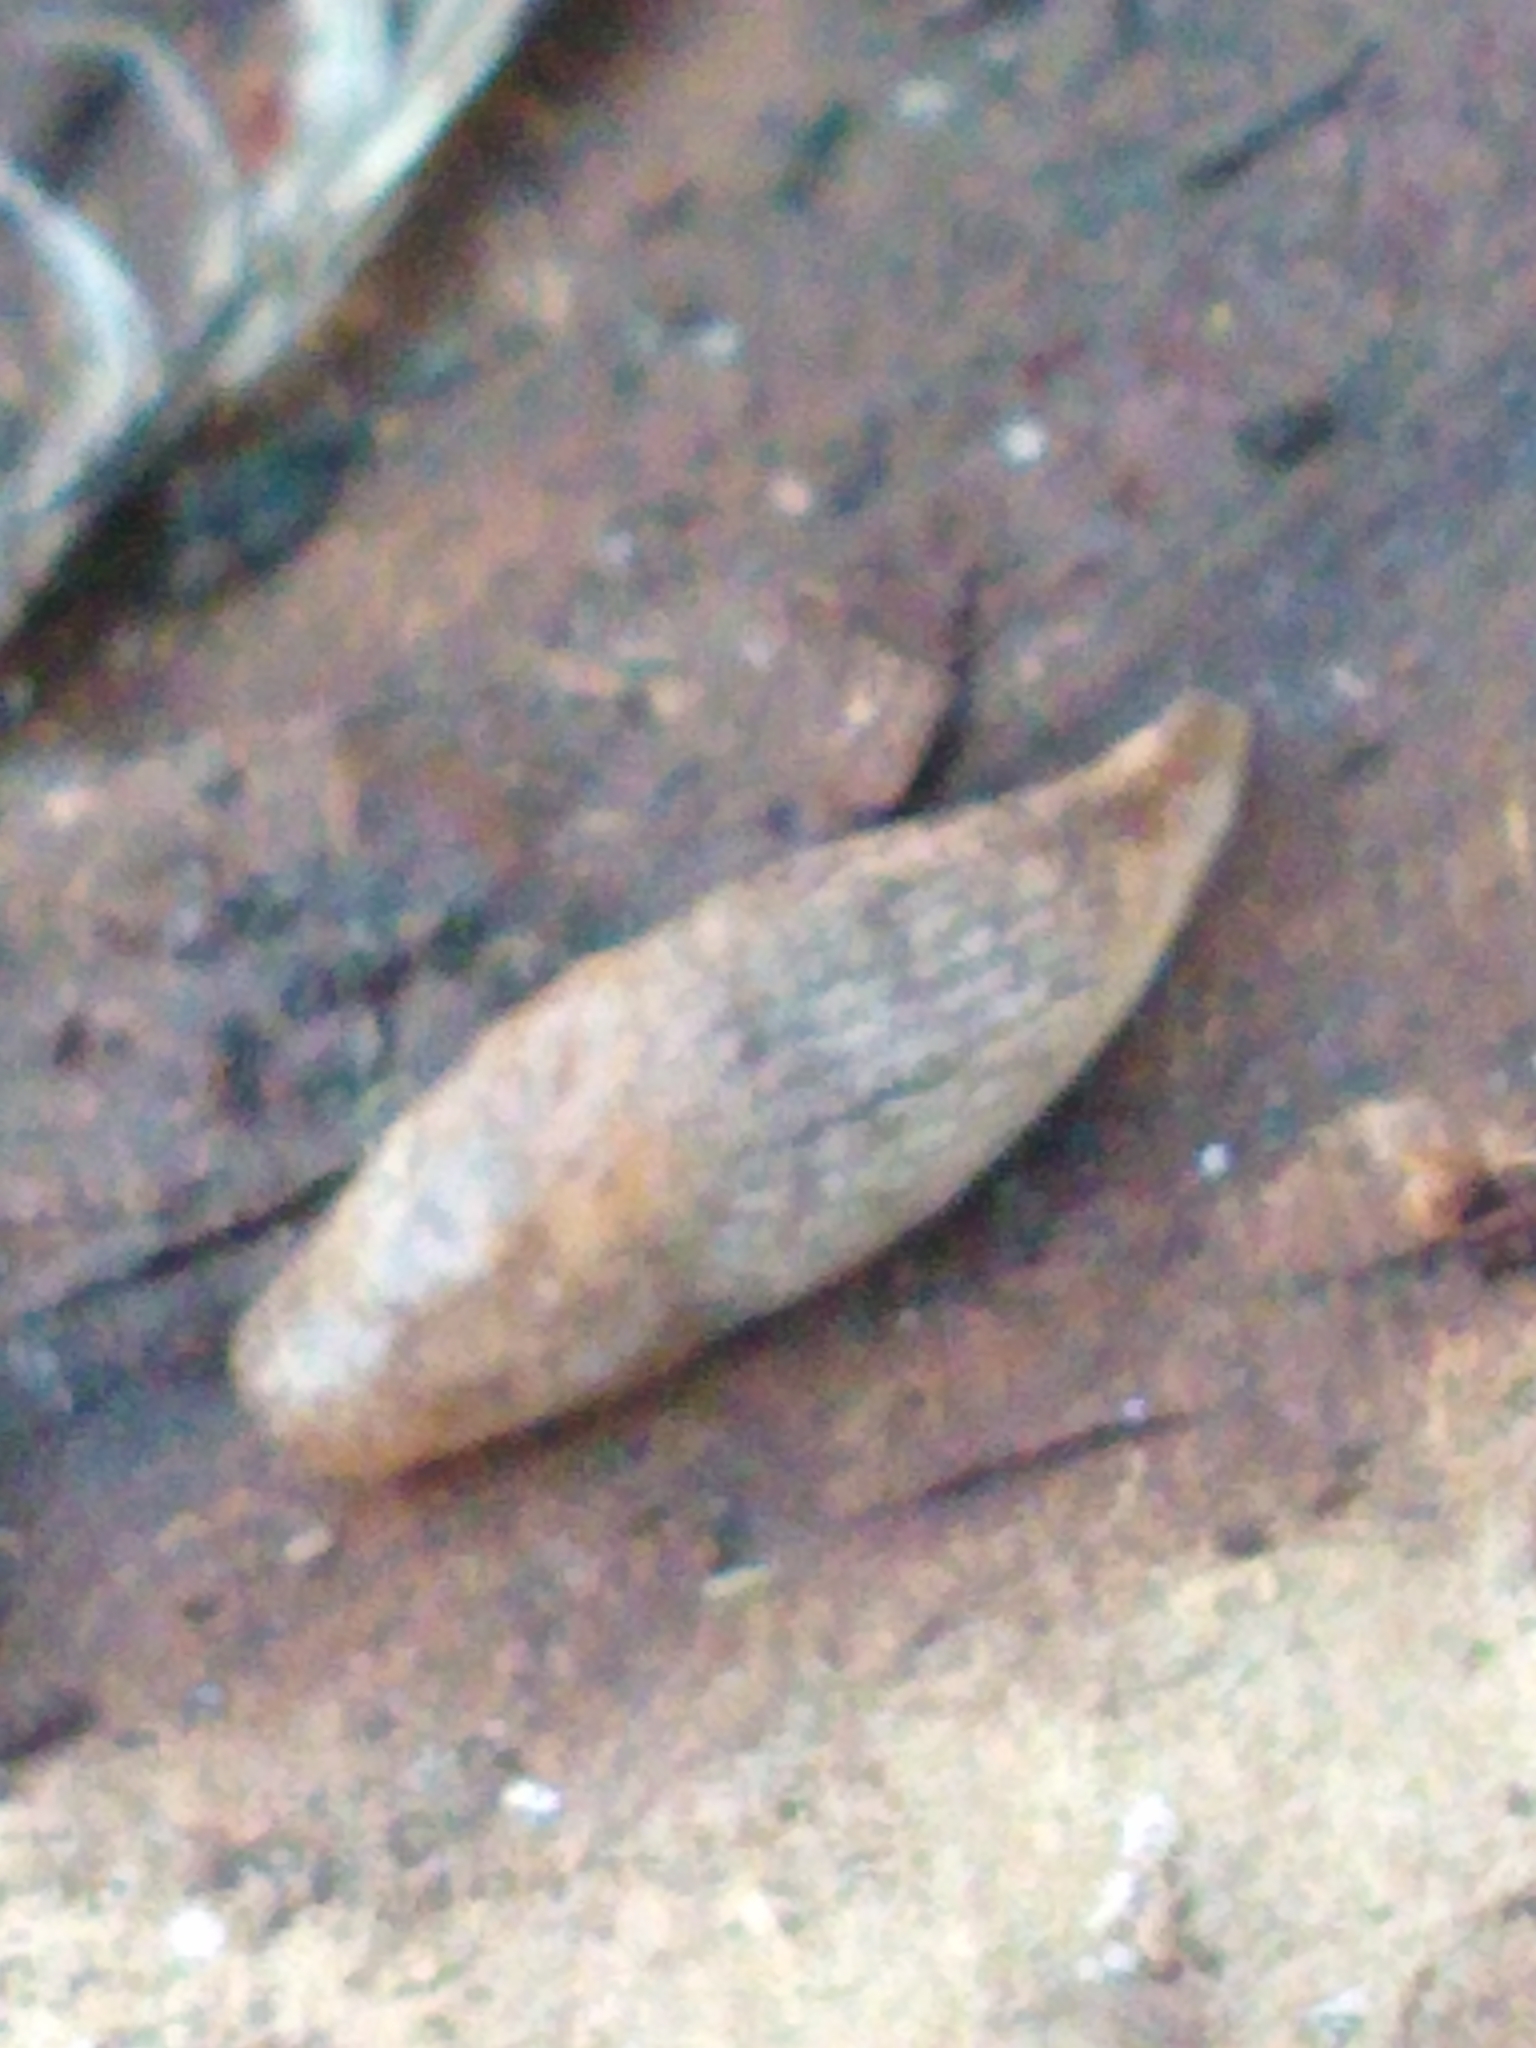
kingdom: Animalia
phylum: Mollusca
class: Gastropoda
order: Stylommatophora
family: Agriolimacidae
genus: Deroceras
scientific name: Deroceras reticulatum
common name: Gray field slug
